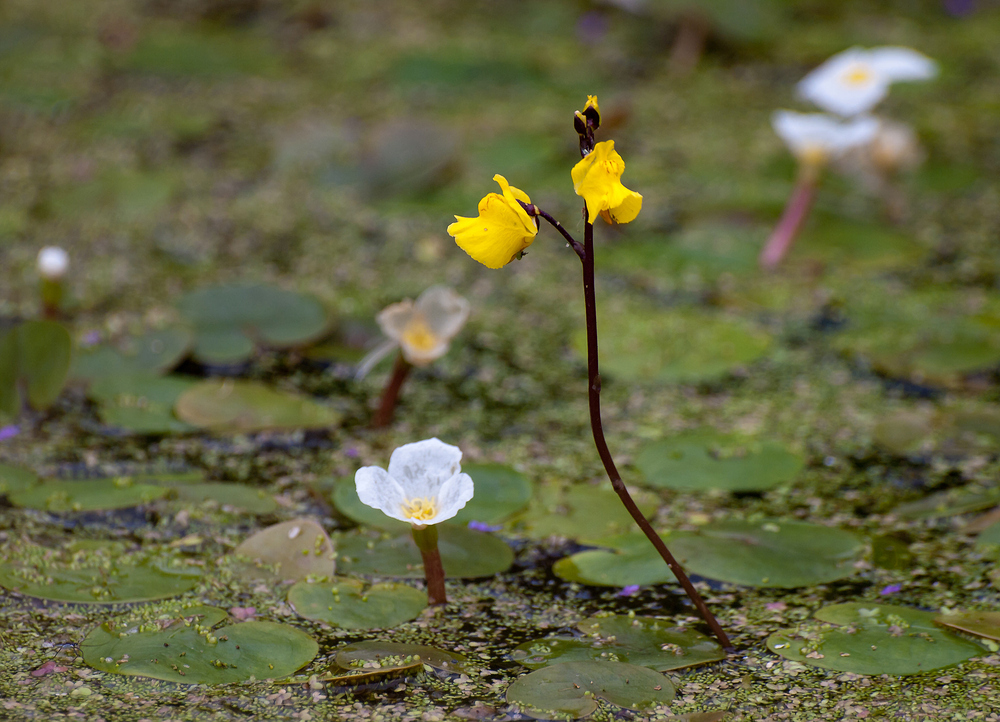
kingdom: Plantae
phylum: Tracheophyta
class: Magnoliopsida
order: Lamiales
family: Lentibulariaceae
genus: Utricularia
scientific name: Utricularia vulgaris
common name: Greater bladderwort
